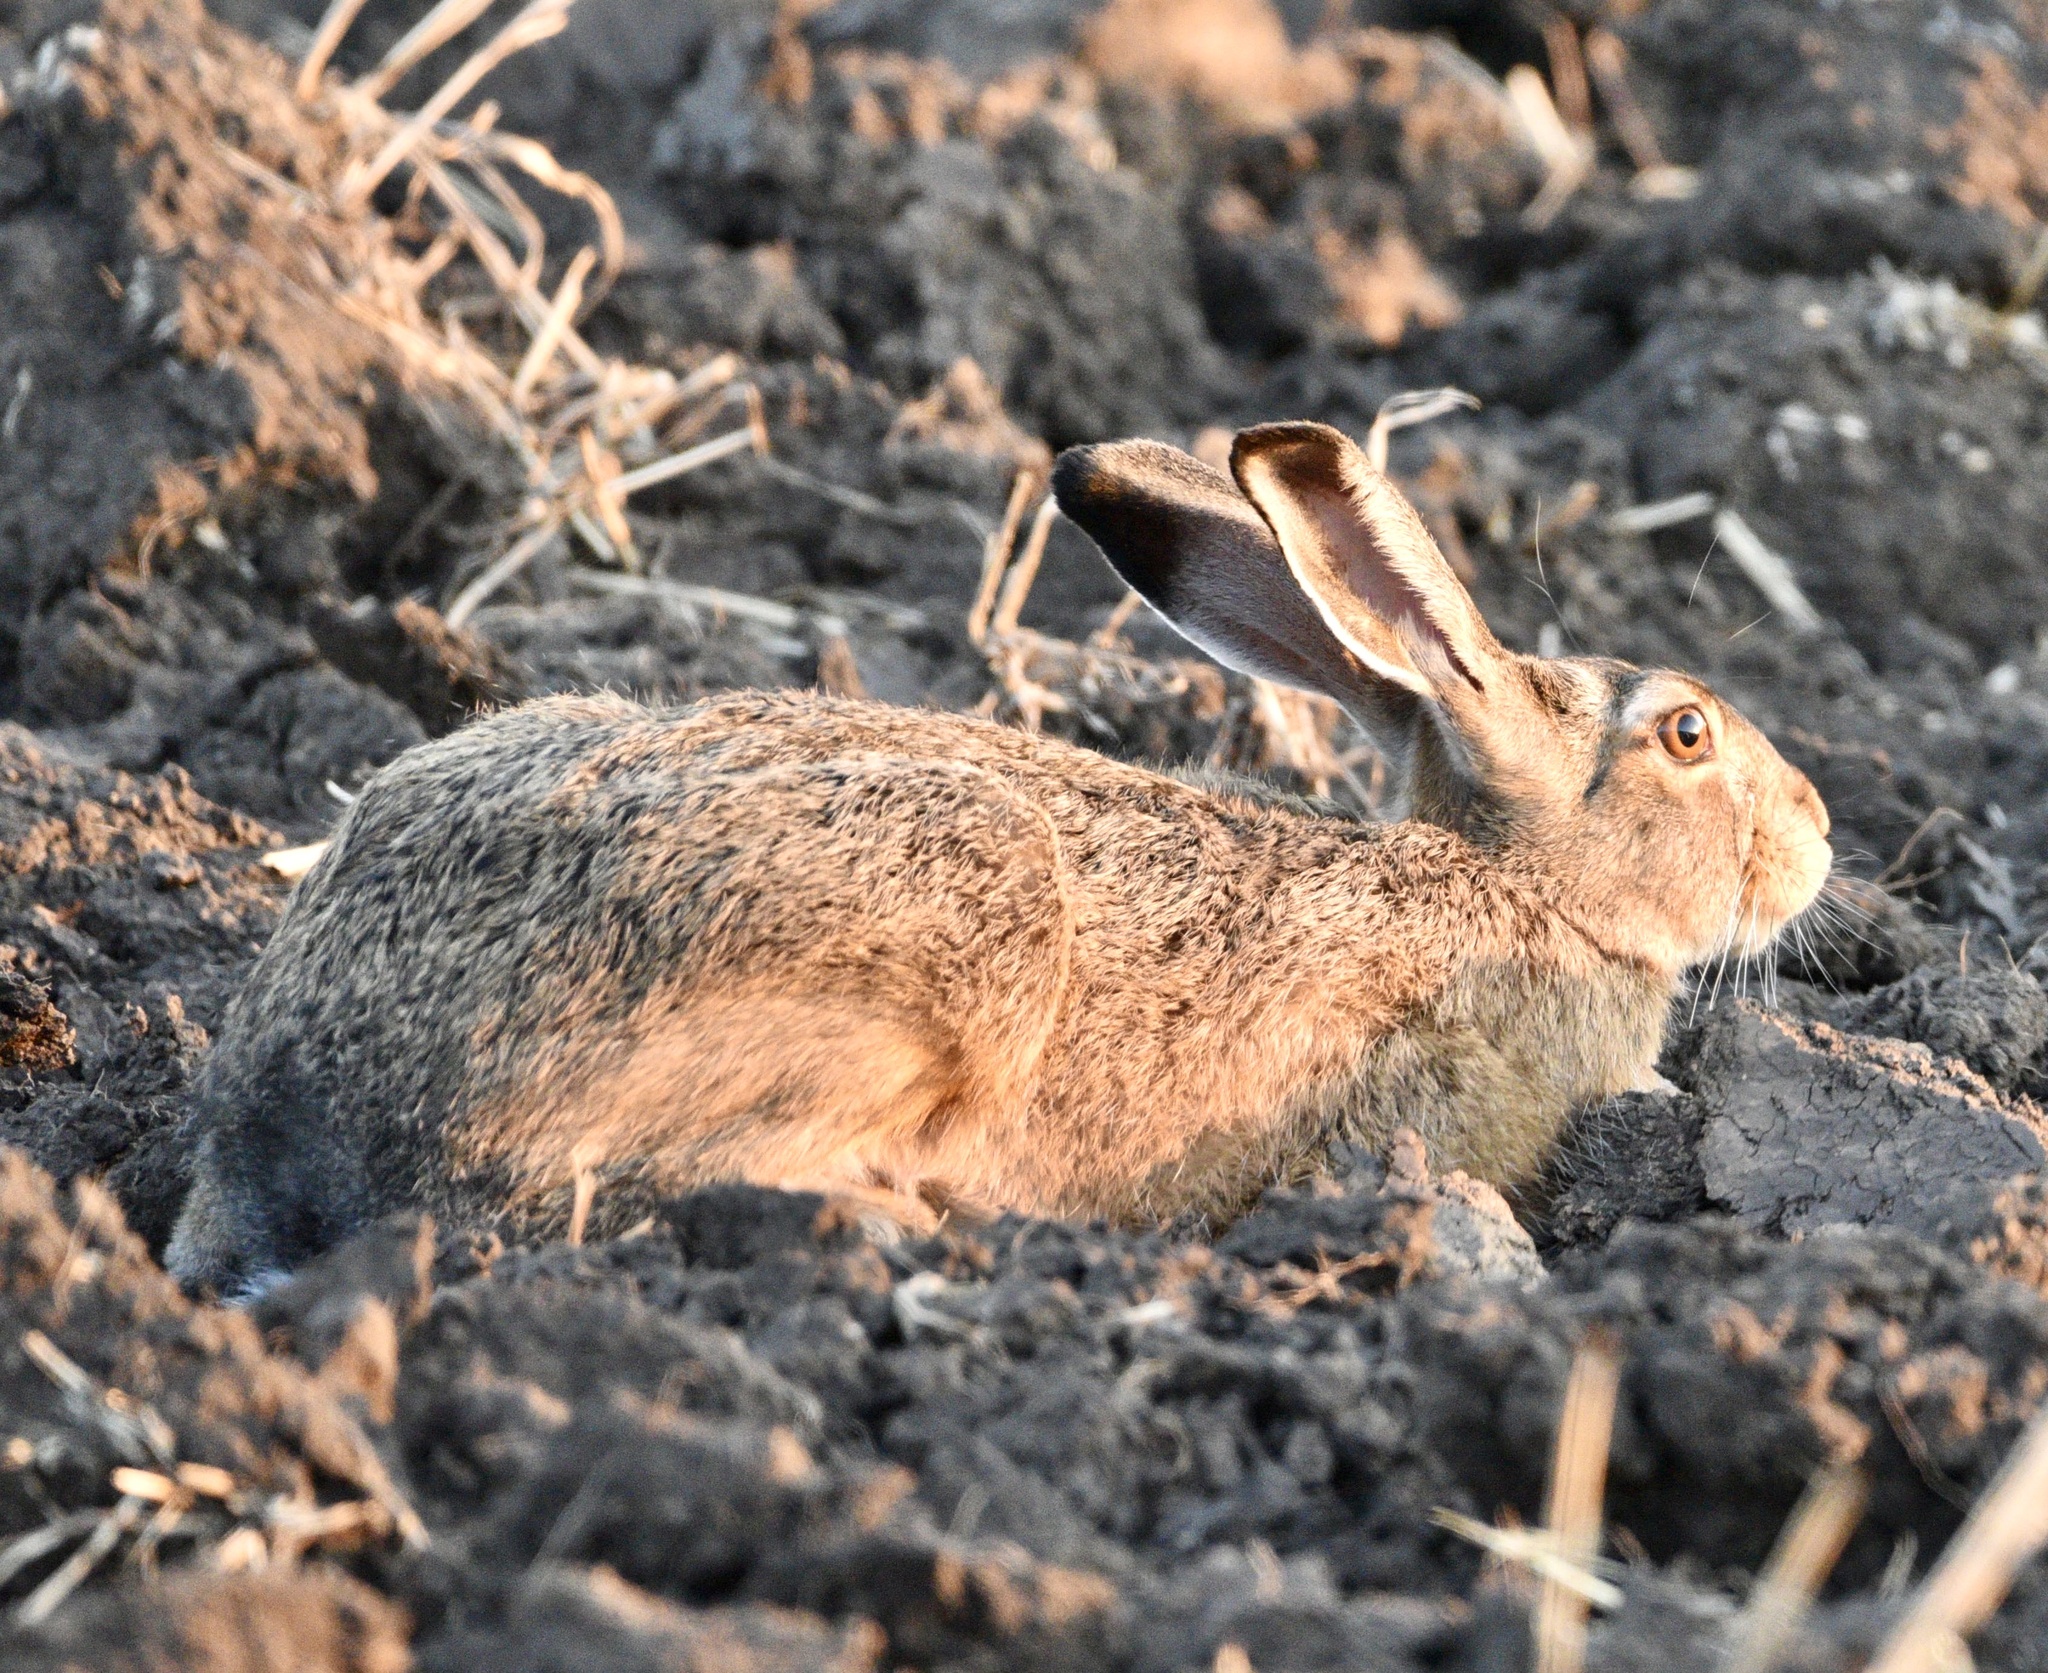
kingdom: Animalia
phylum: Chordata
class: Mammalia
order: Lagomorpha
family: Leporidae
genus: Lepus
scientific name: Lepus europaeus
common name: European hare
